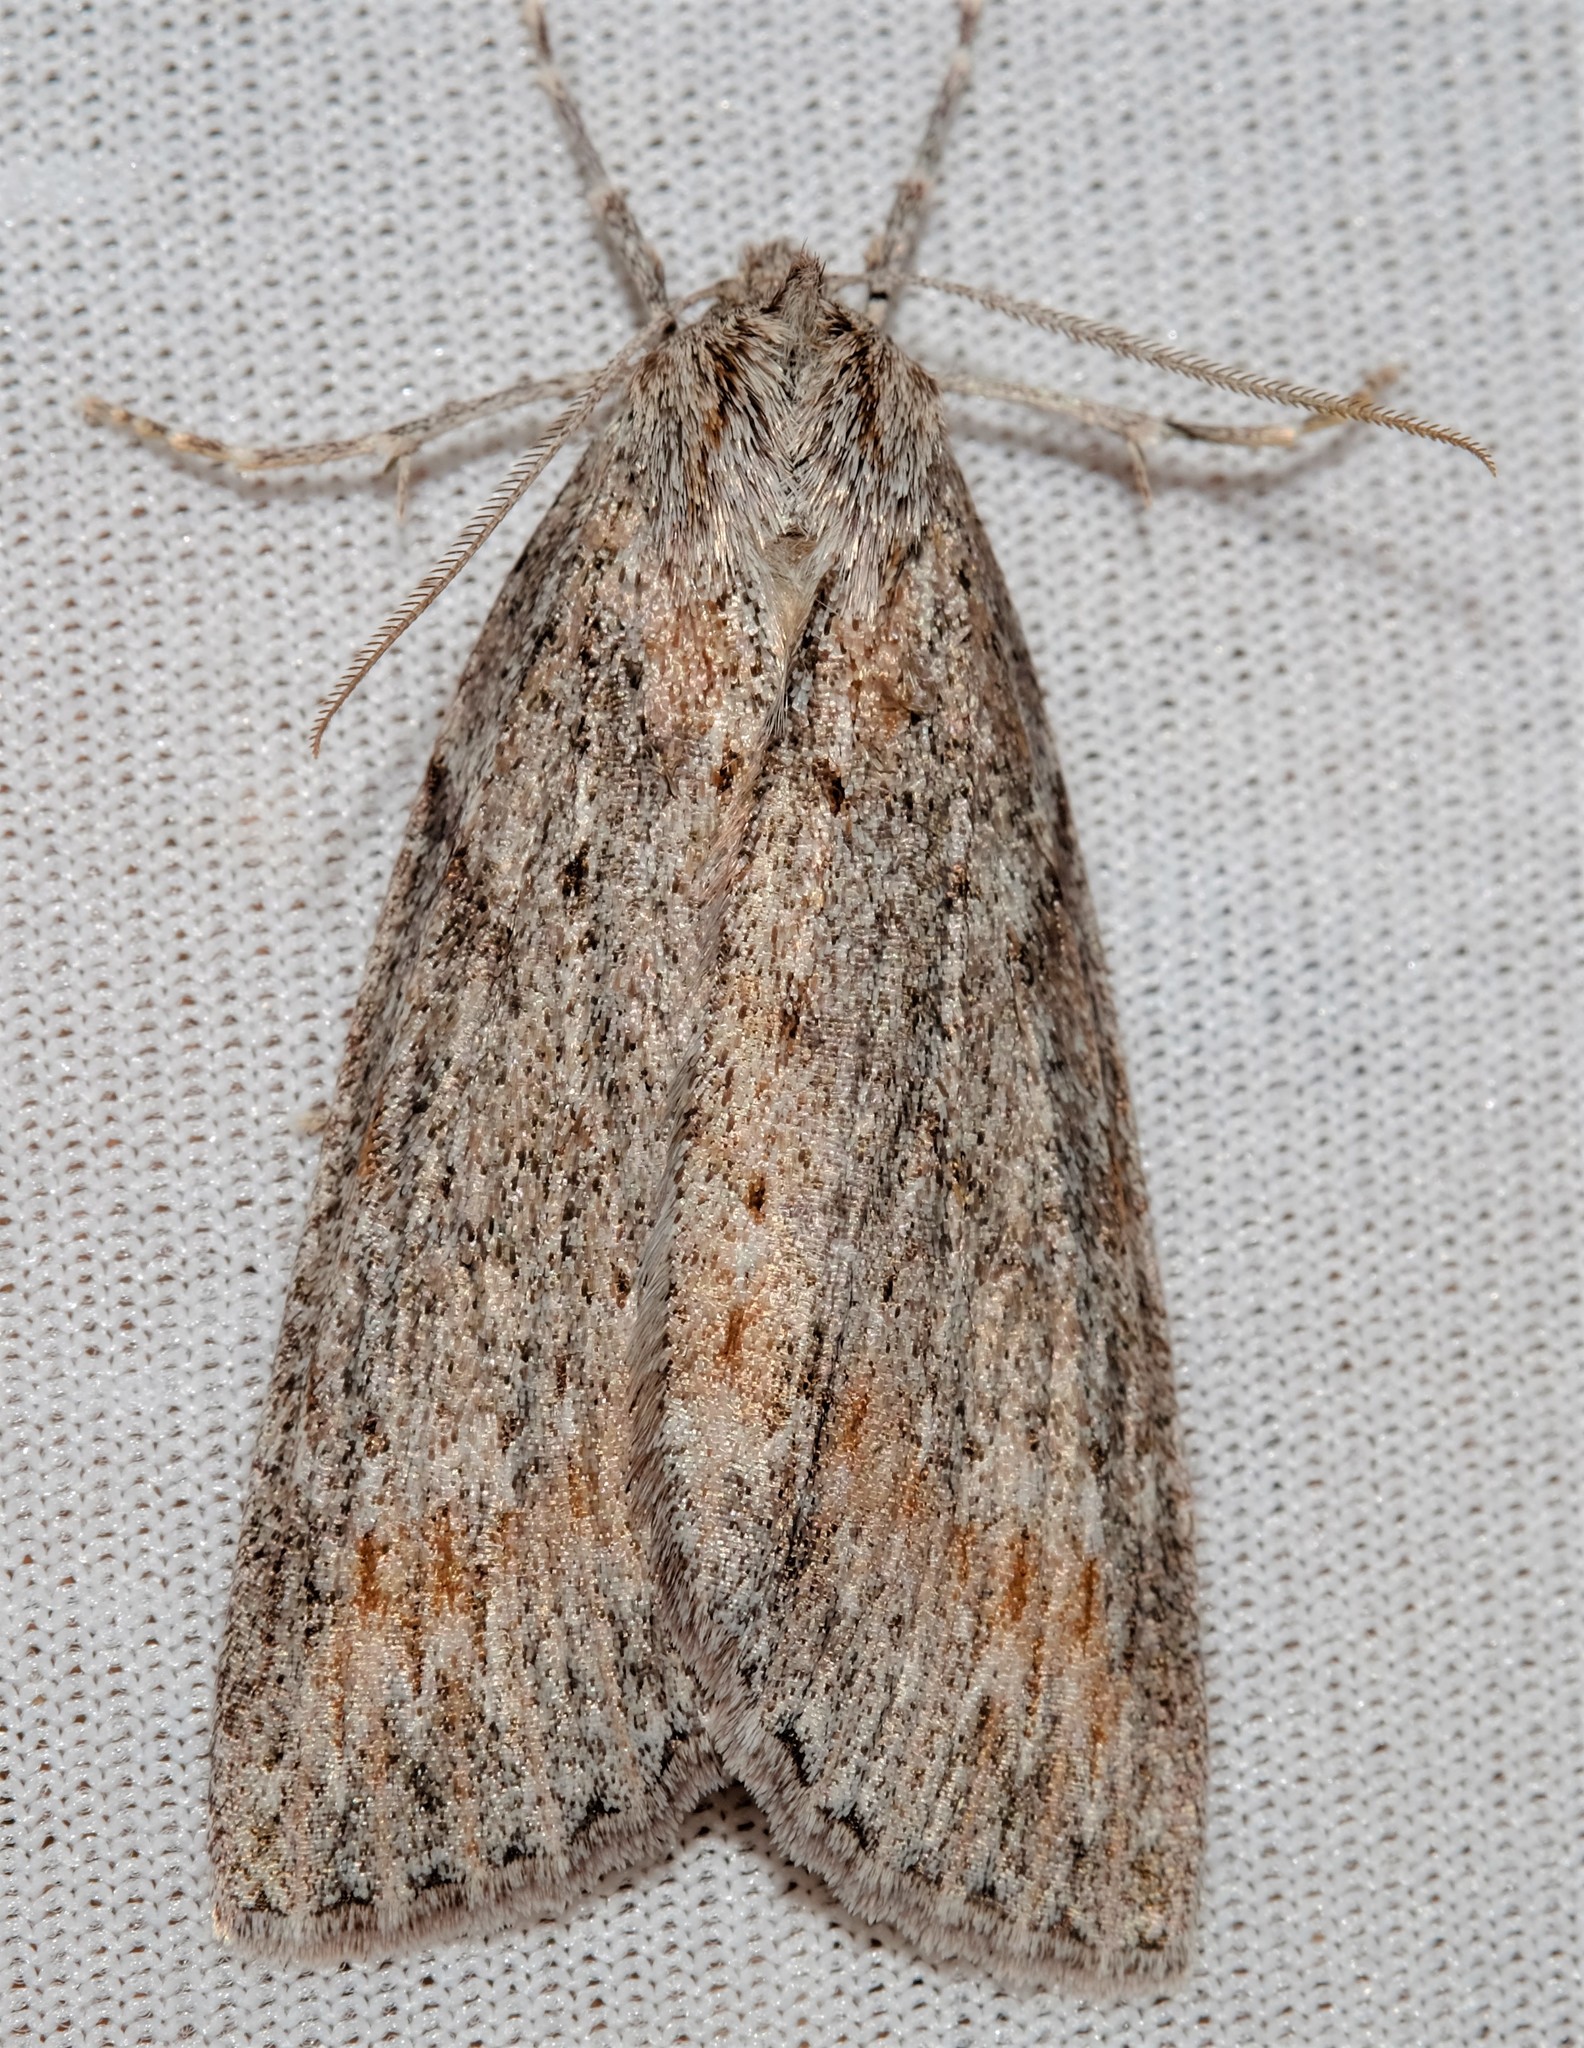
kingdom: Animalia
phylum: Arthropoda
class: Insecta
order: Lepidoptera
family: Geometridae
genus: Chlenias
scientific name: Chlenias banksiaria
